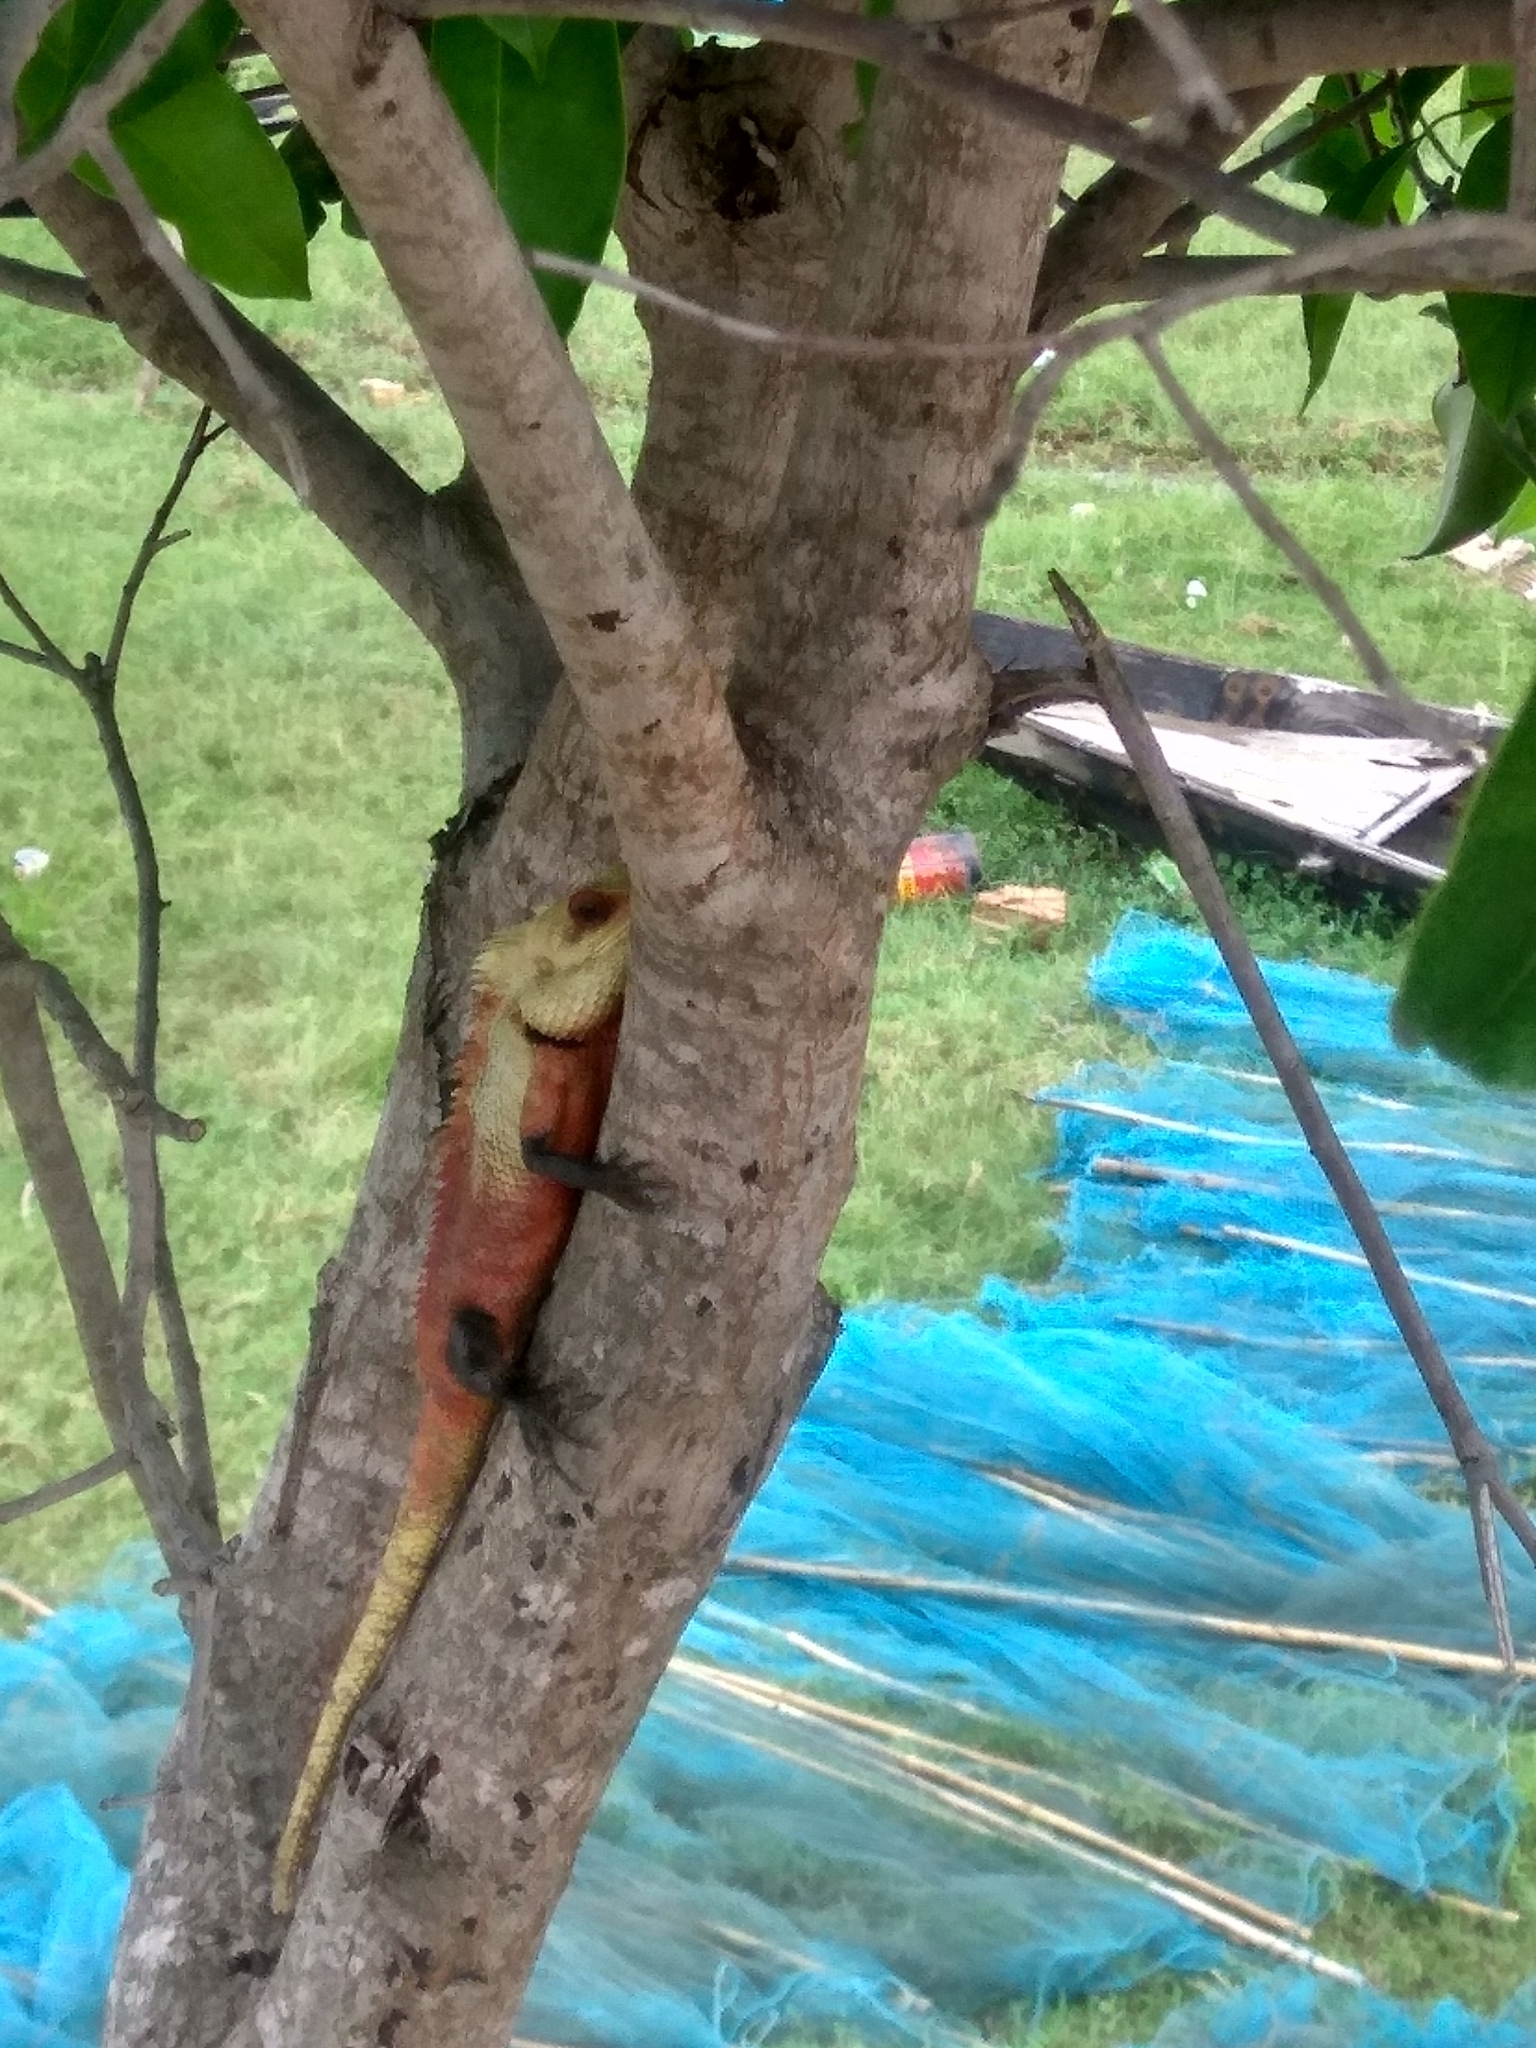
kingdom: Animalia
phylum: Chordata
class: Squamata
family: Agamidae
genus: Calotes
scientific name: Calotes versicolor
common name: Oriental garden lizard
